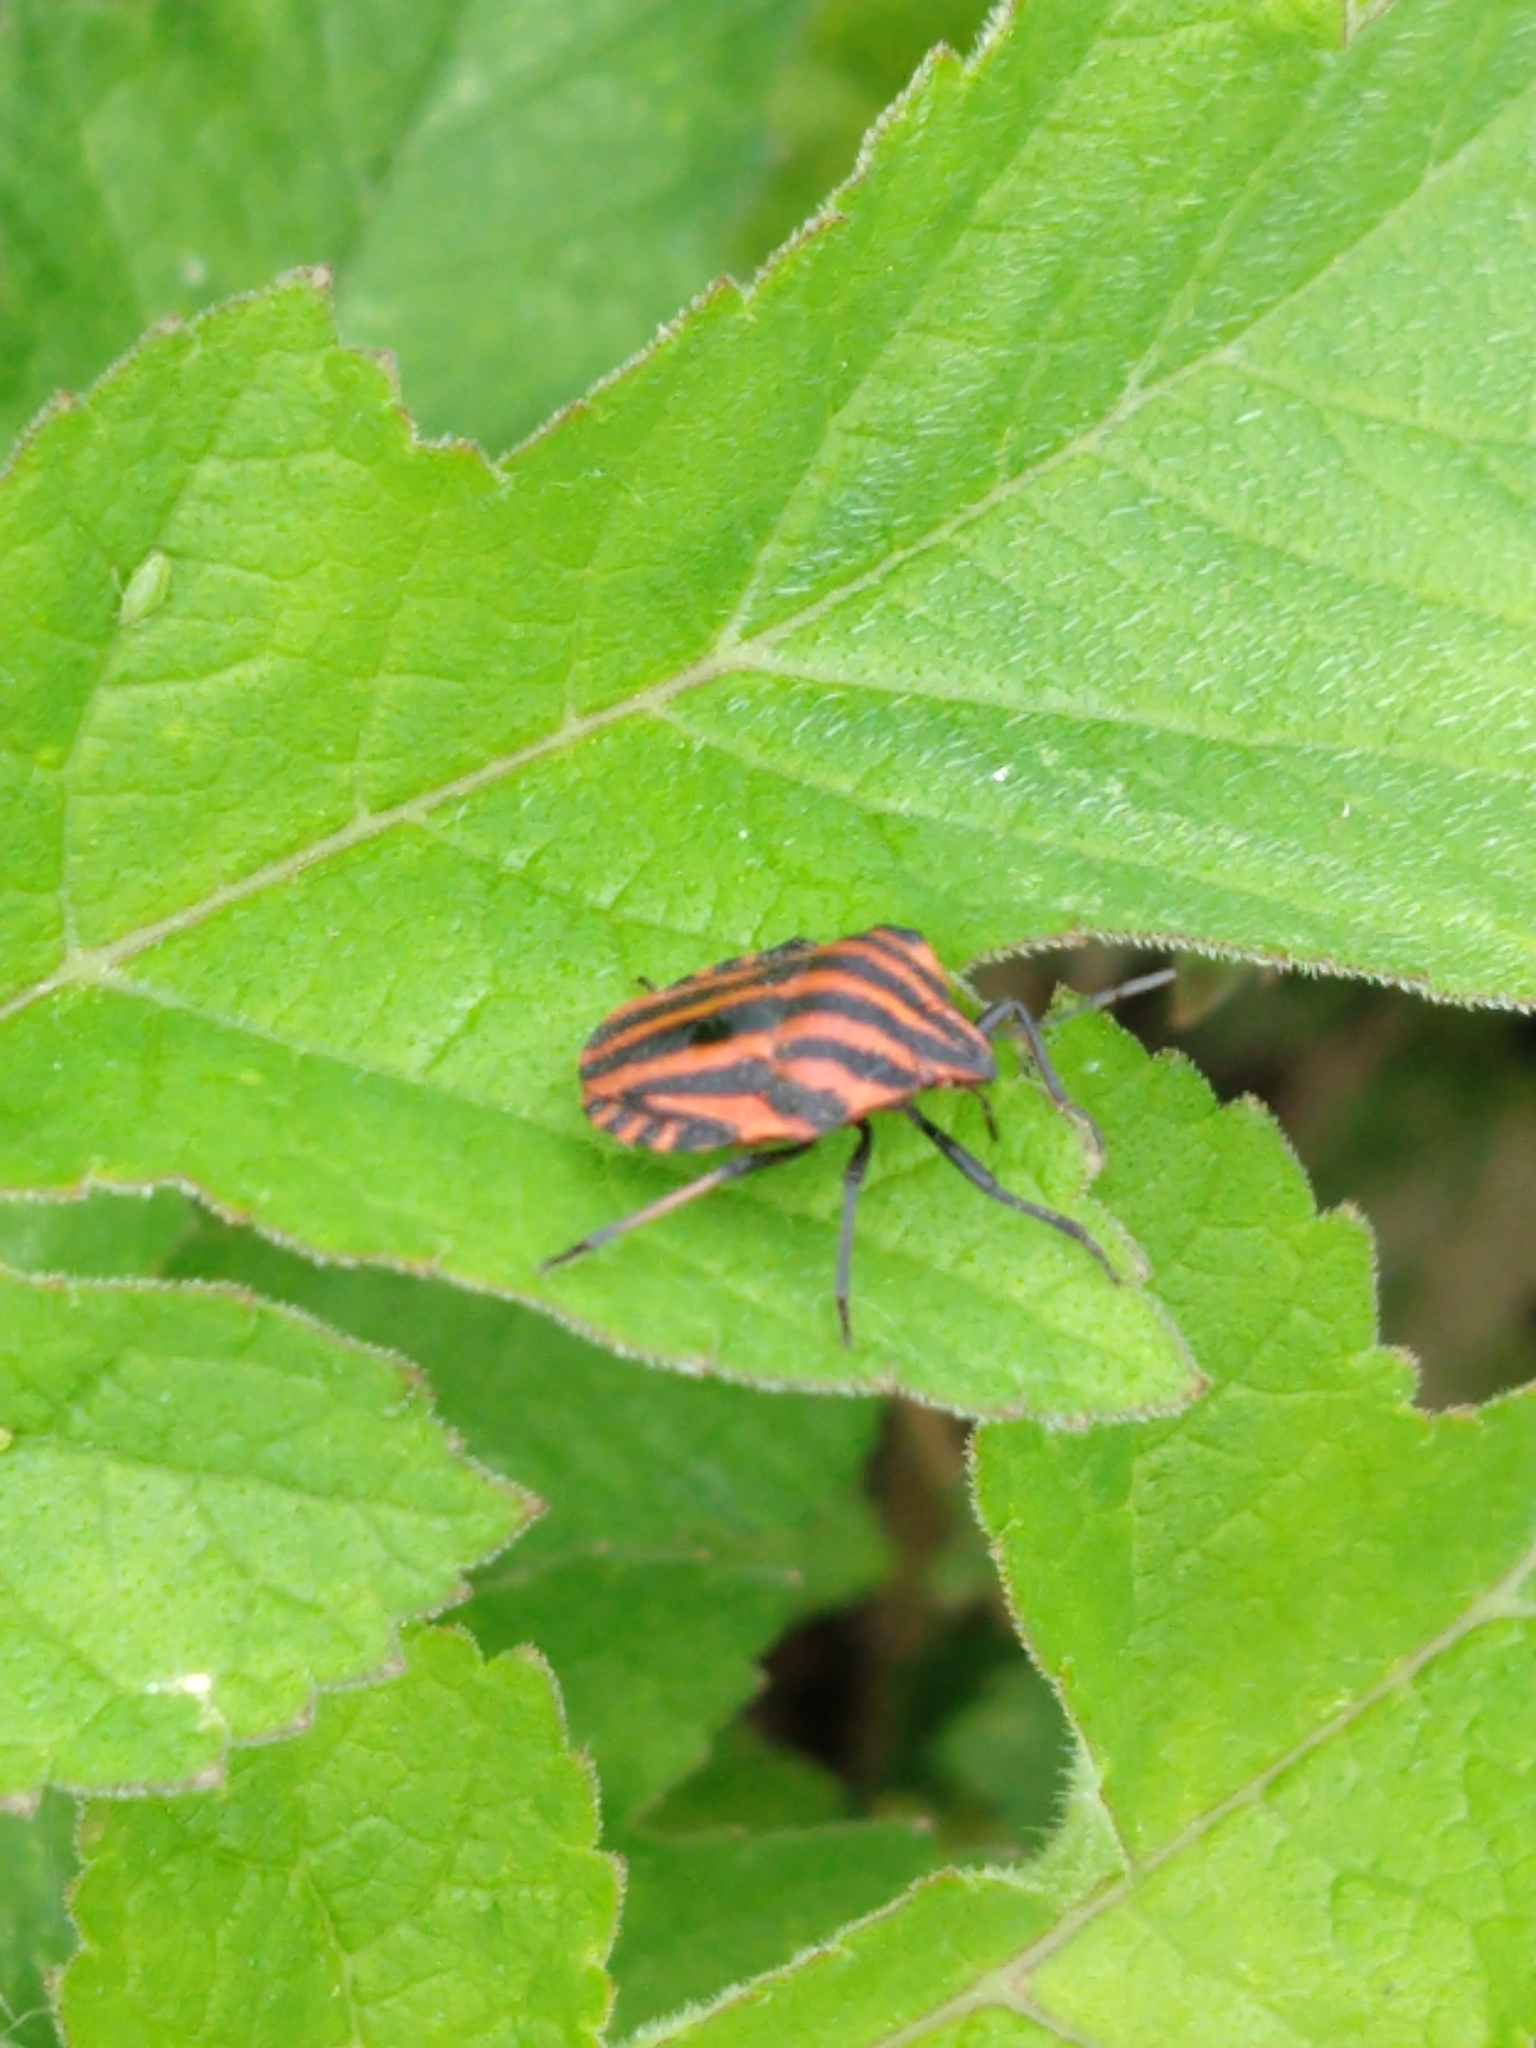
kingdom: Animalia
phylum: Arthropoda
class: Insecta
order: Hemiptera
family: Pentatomidae
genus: Graphosoma
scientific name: Graphosoma italicum
